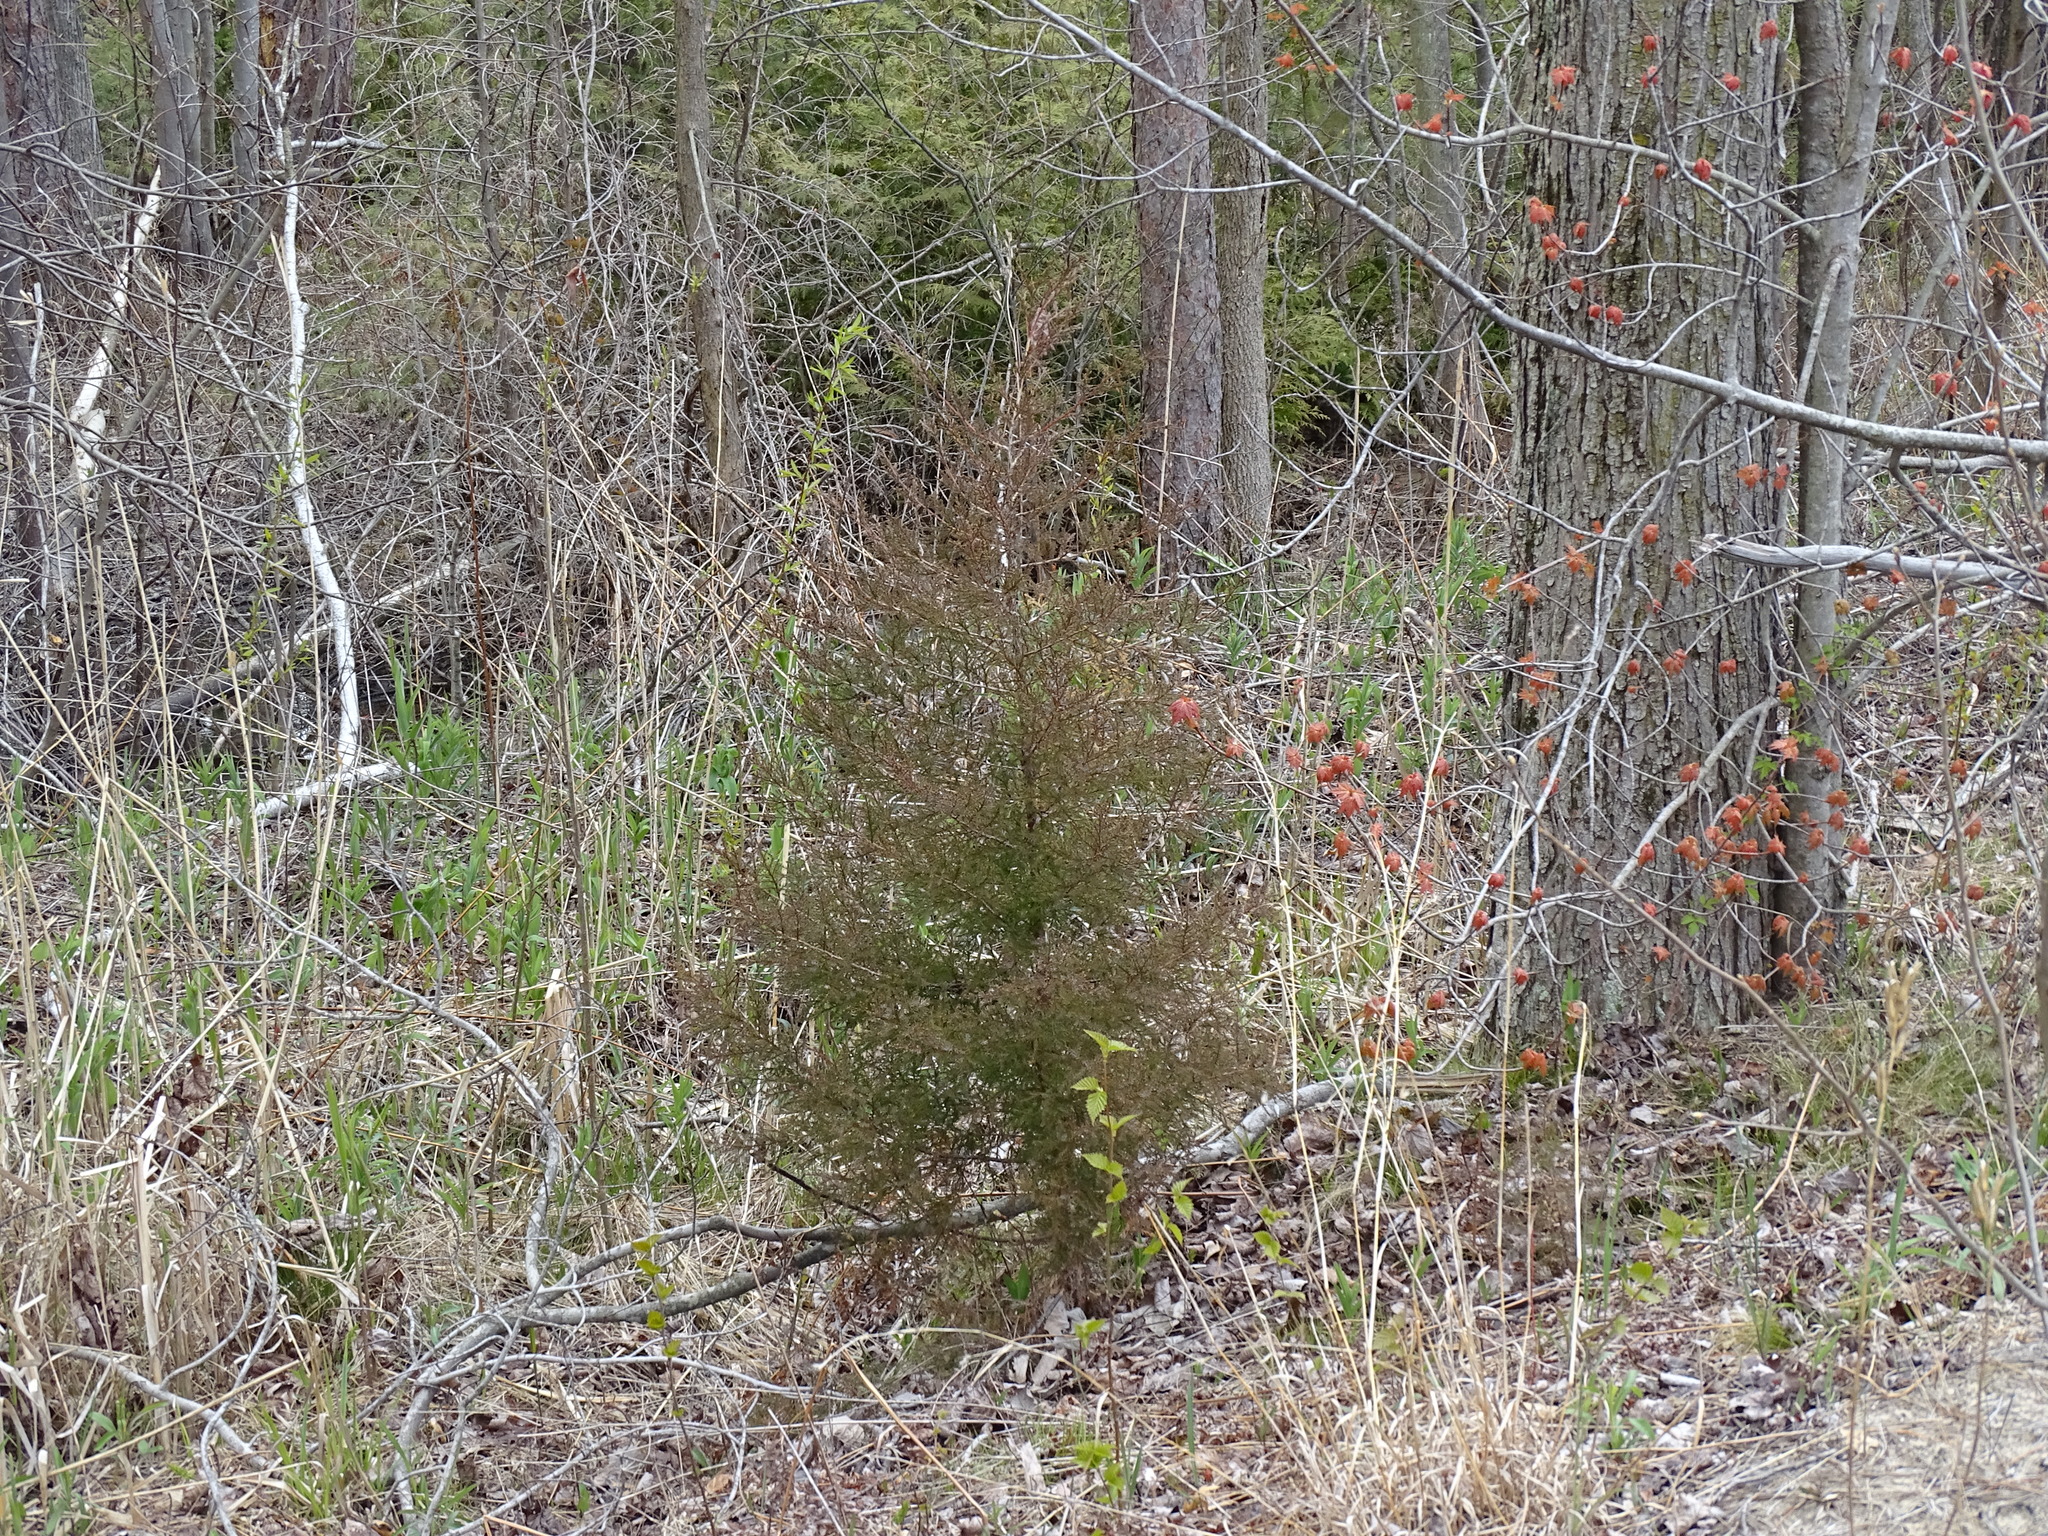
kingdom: Plantae
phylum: Tracheophyta
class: Pinopsida
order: Pinales
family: Cupressaceae
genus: Juniperus
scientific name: Juniperus virginiana
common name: Red juniper
